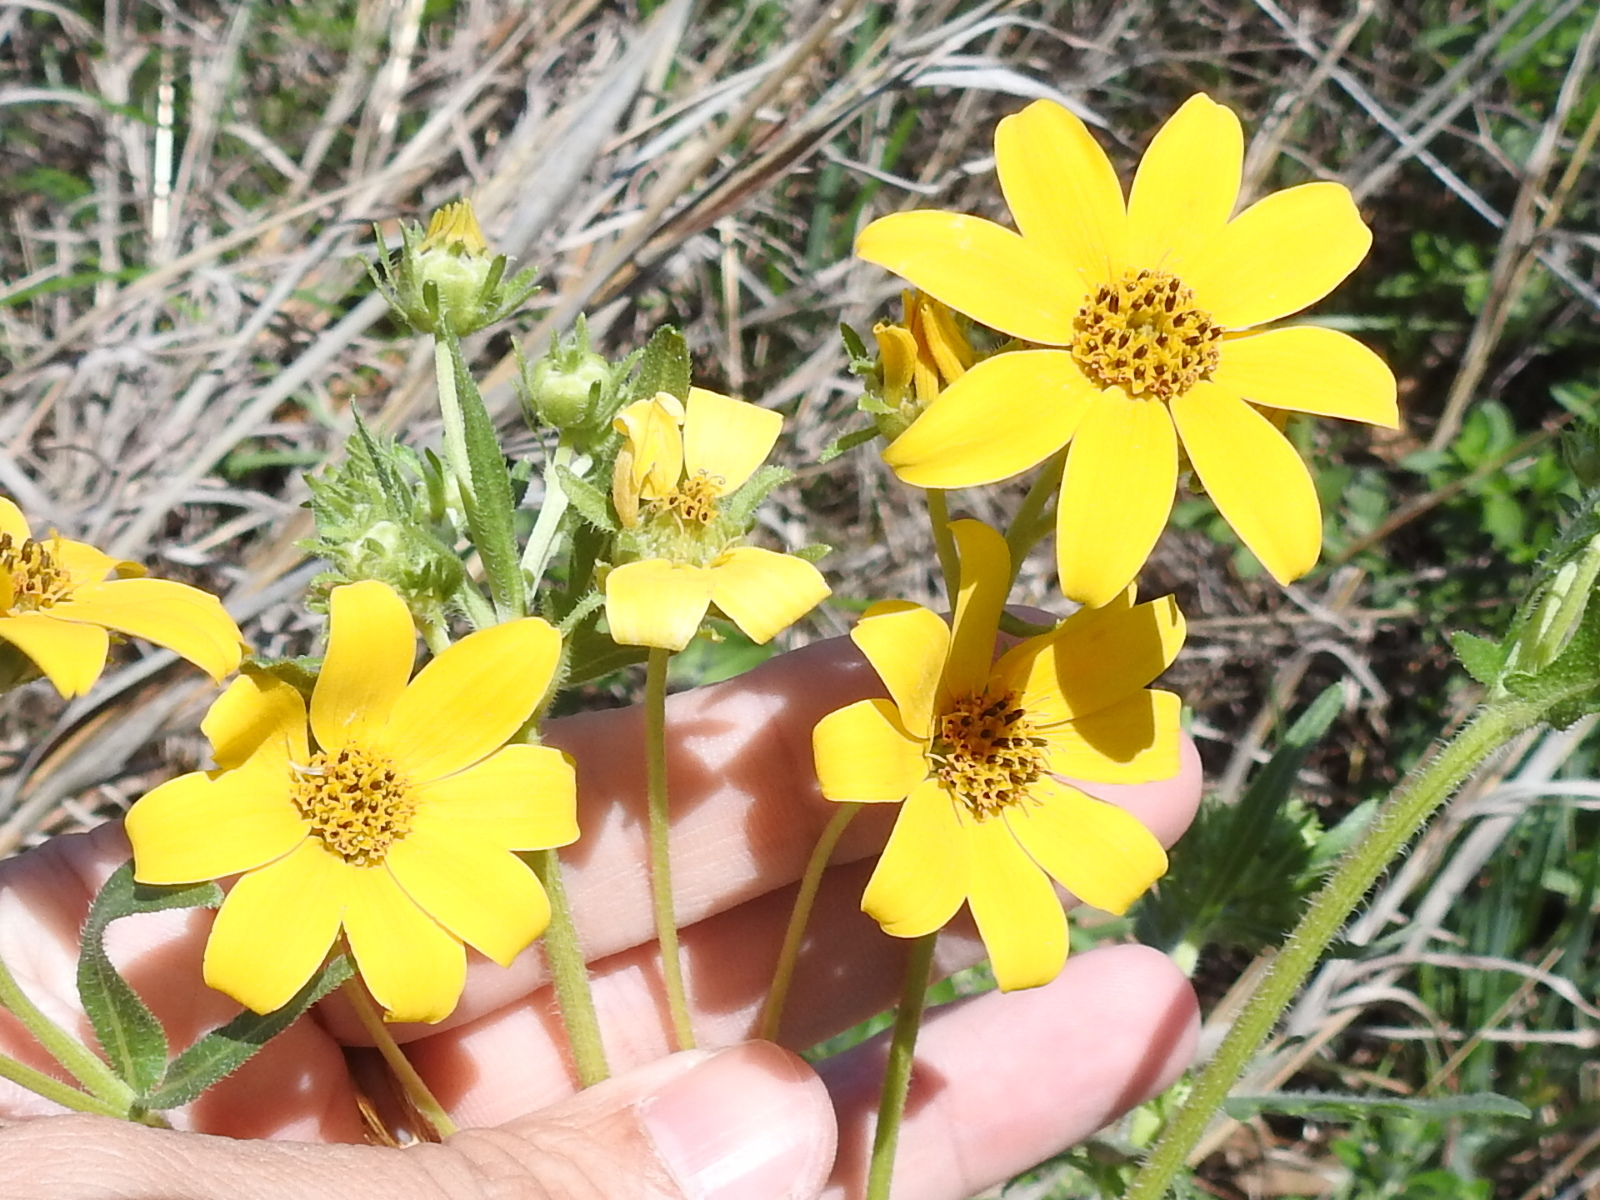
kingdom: Plantae
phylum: Tracheophyta
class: Magnoliopsida
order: Asterales
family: Asteraceae
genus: Engelmannia
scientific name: Engelmannia peristenia
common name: Engelmann's daisy
